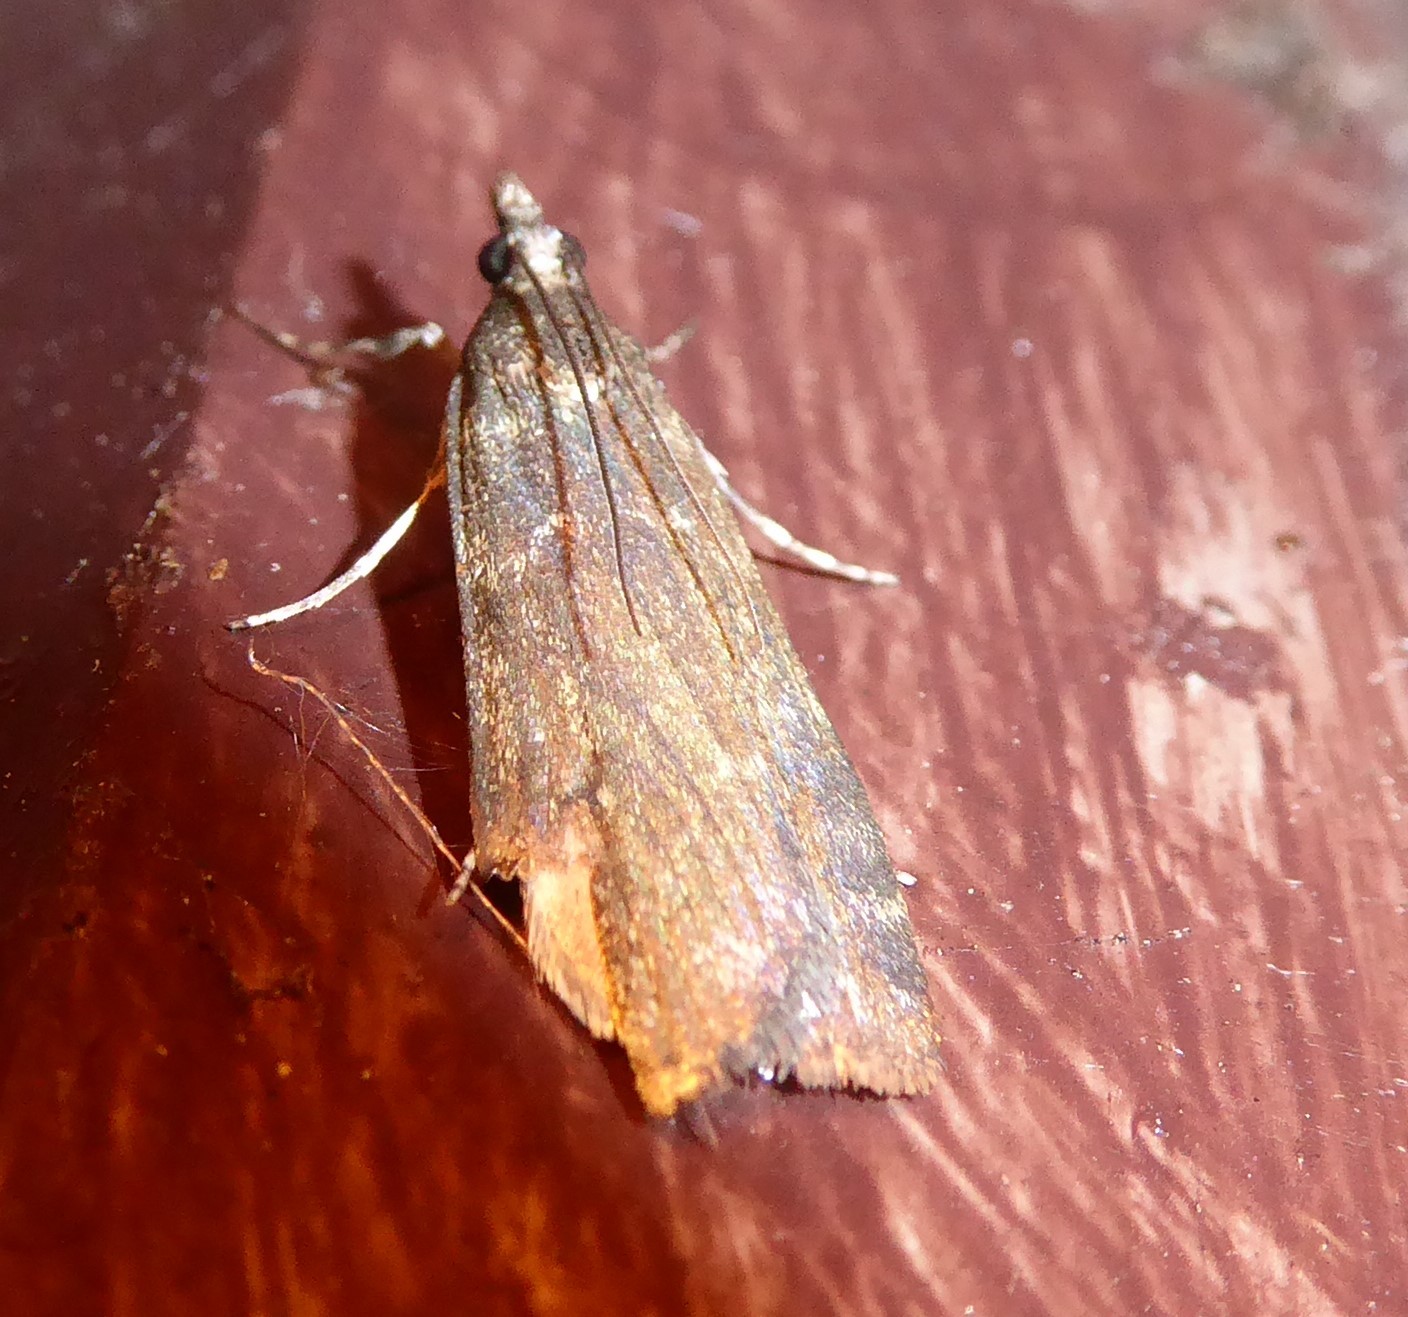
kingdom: Animalia
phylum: Arthropoda
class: Insecta
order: Lepidoptera
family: Crambidae
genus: Eudonia
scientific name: Eudonia cataxesta
